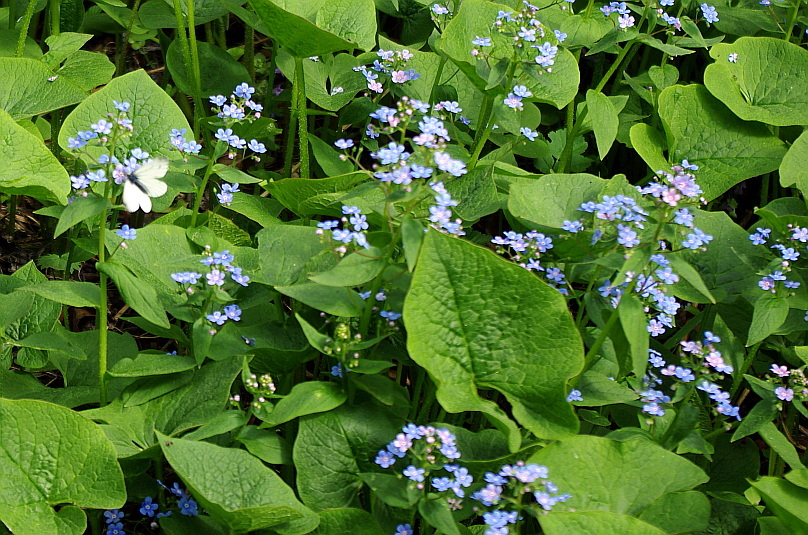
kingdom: Plantae
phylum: Tracheophyta
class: Magnoliopsida
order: Boraginales
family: Boraginaceae
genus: Brunnera
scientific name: Brunnera sibirica
